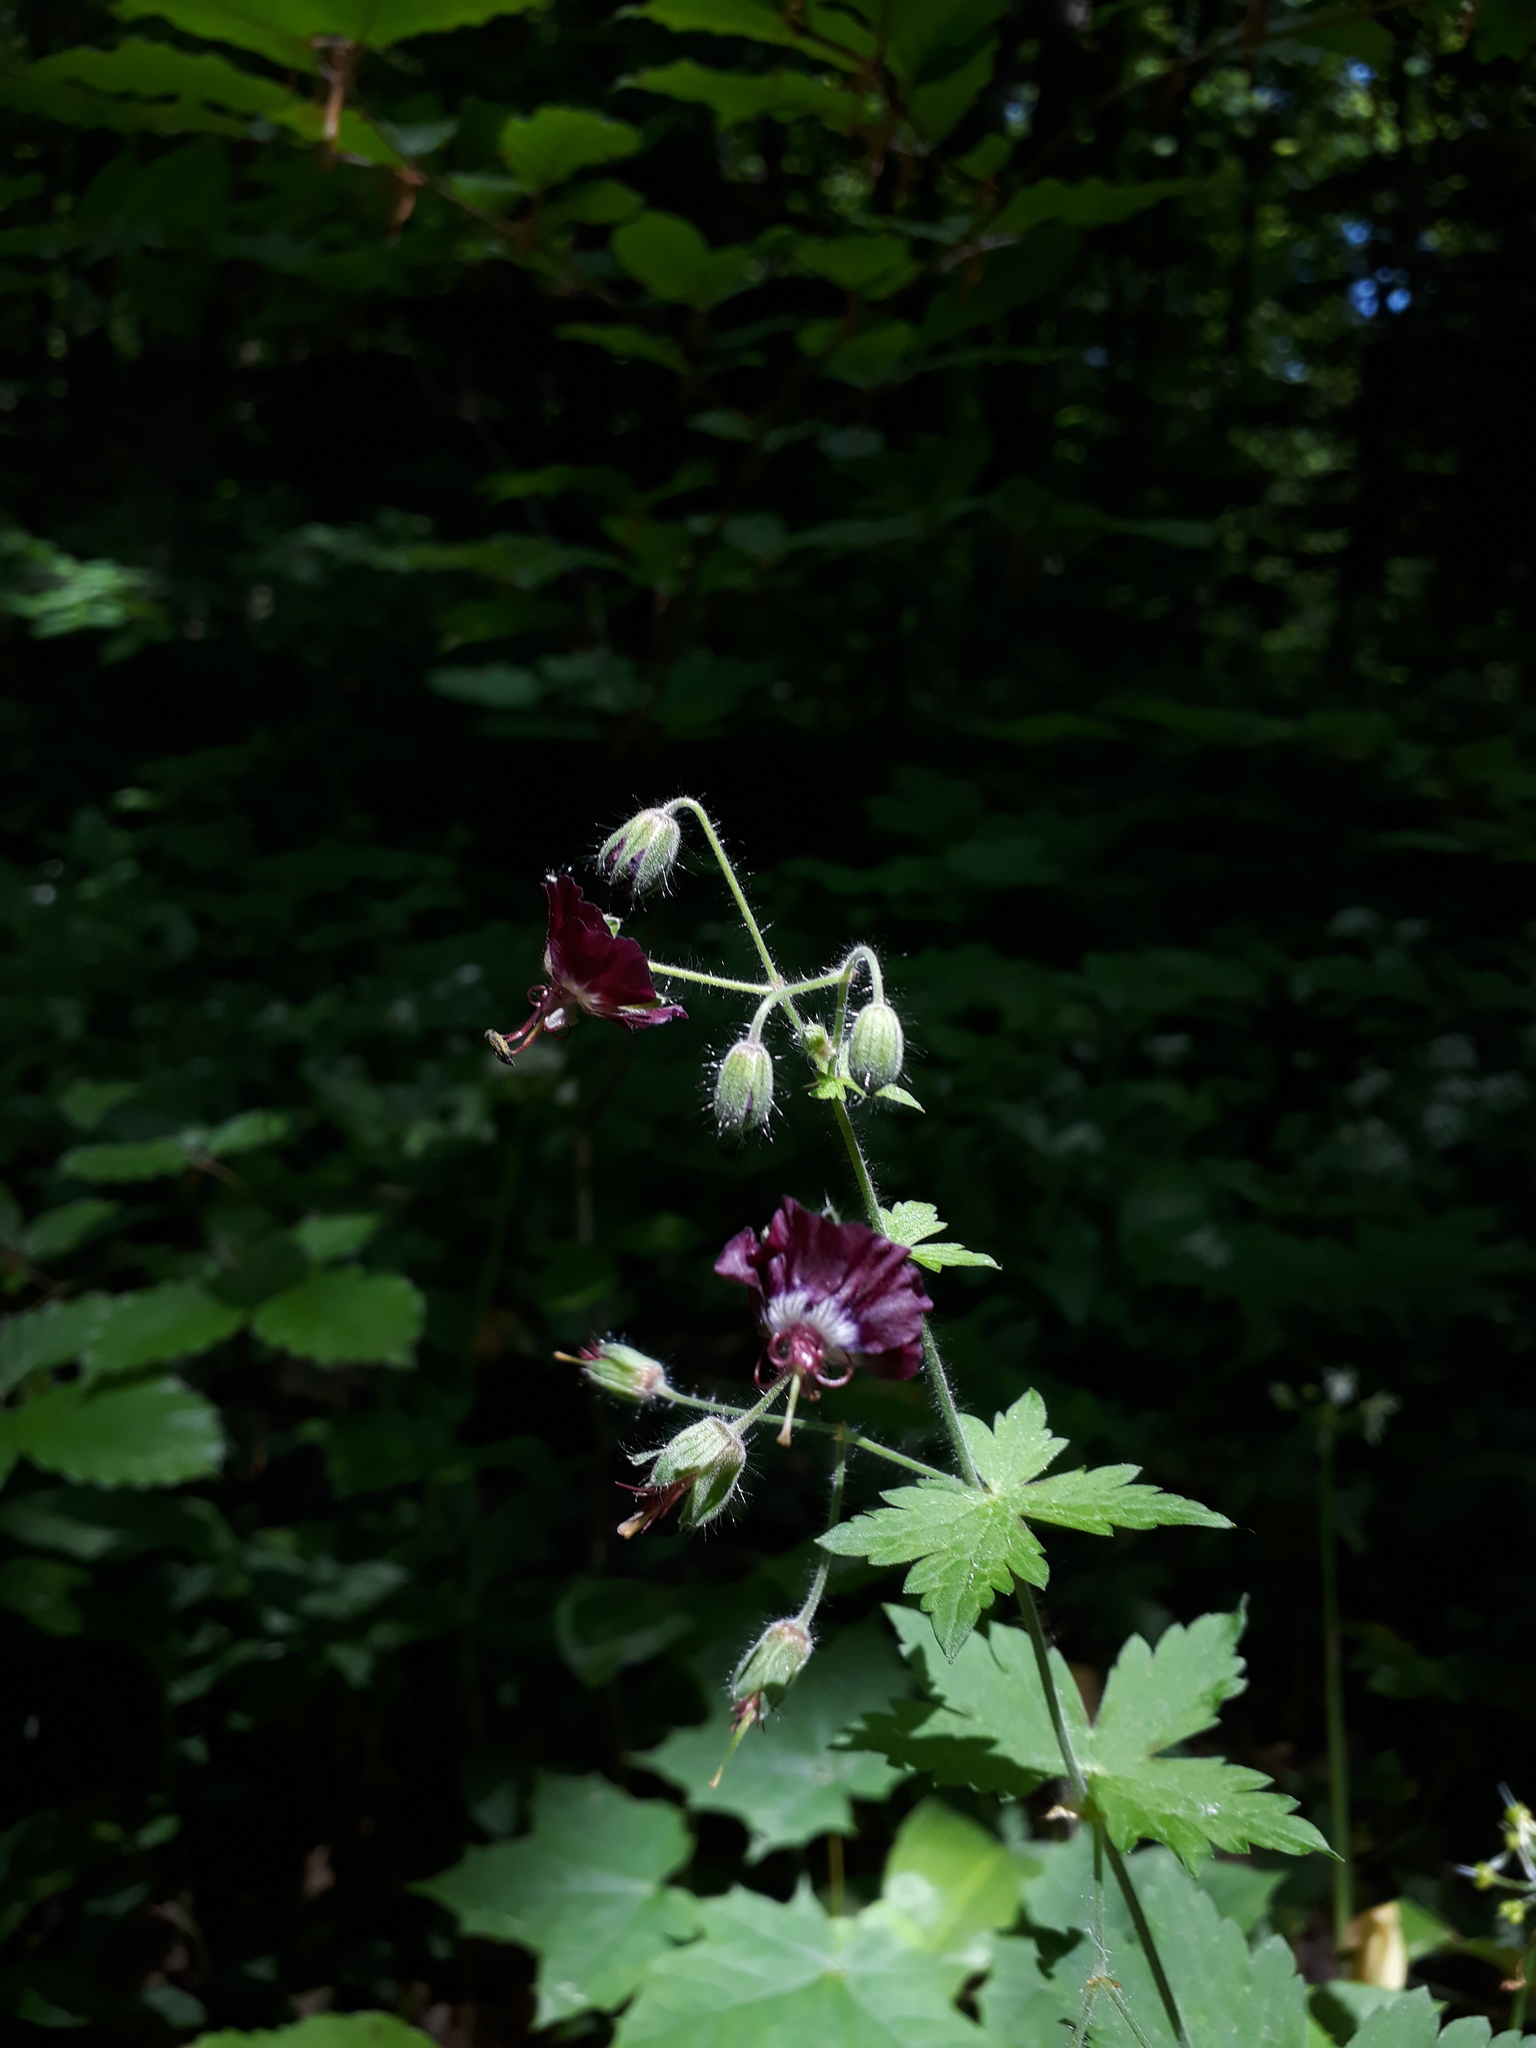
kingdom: Plantae
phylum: Tracheophyta
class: Magnoliopsida
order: Geraniales
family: Geraniaceae
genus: Geranium
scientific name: Geranium phaeum
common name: Dusky crane's-bill
